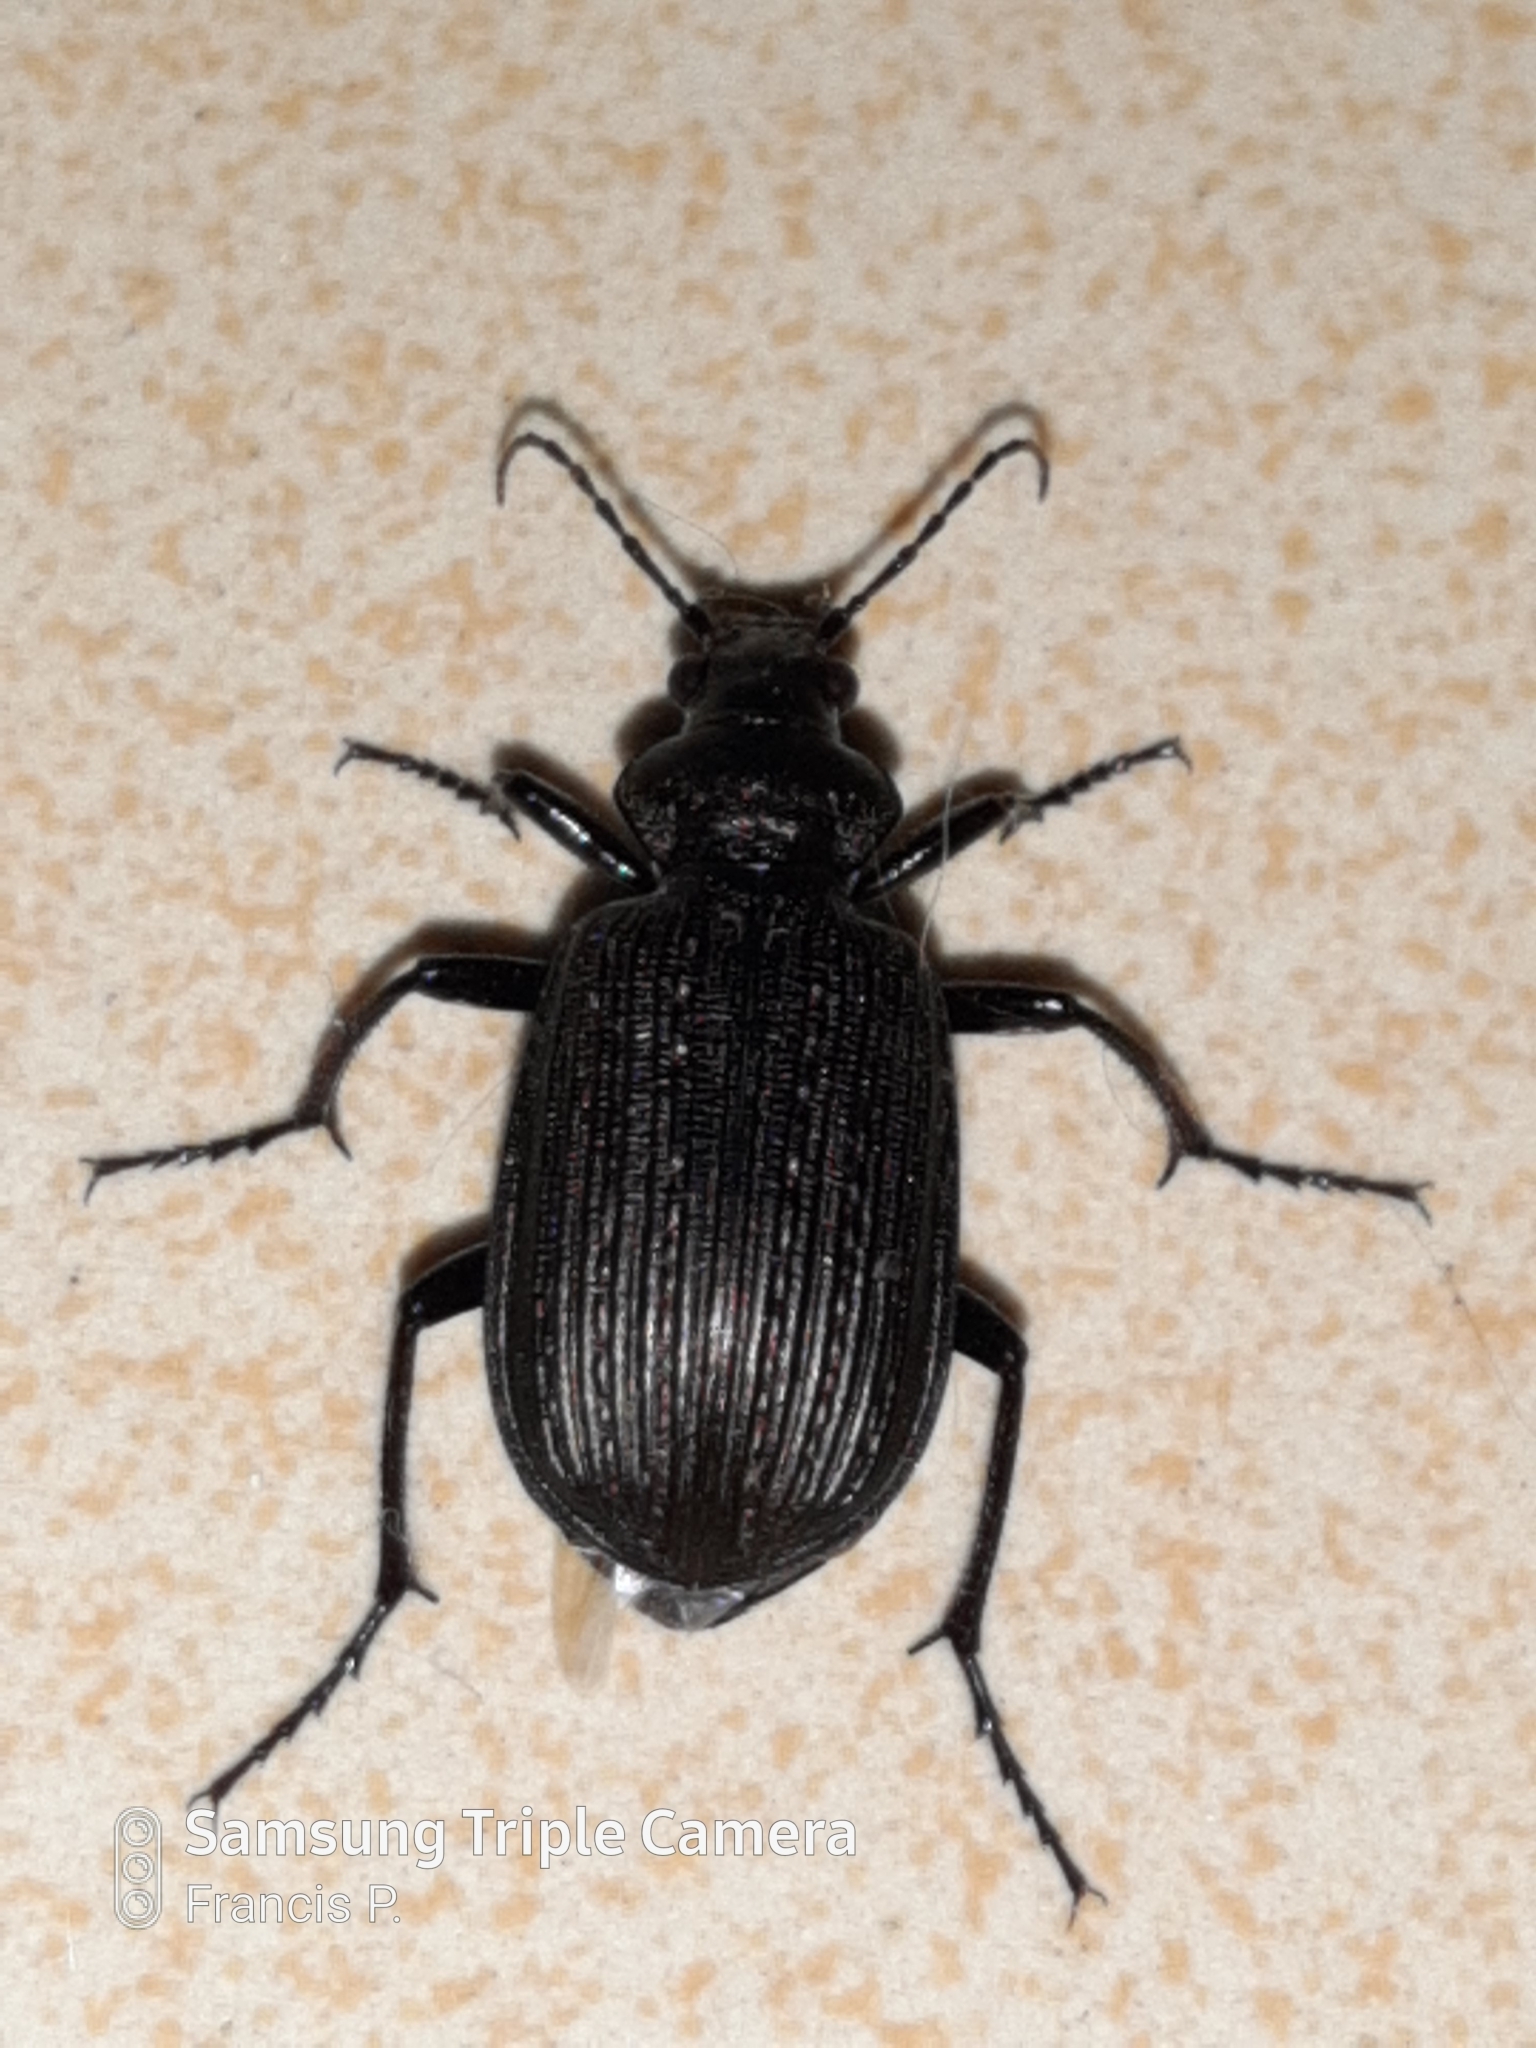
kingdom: Animalia
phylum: Arthropoda
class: Insecta
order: Coleoptera
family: Carabidae
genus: Calosoma
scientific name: Calosoma alternans
